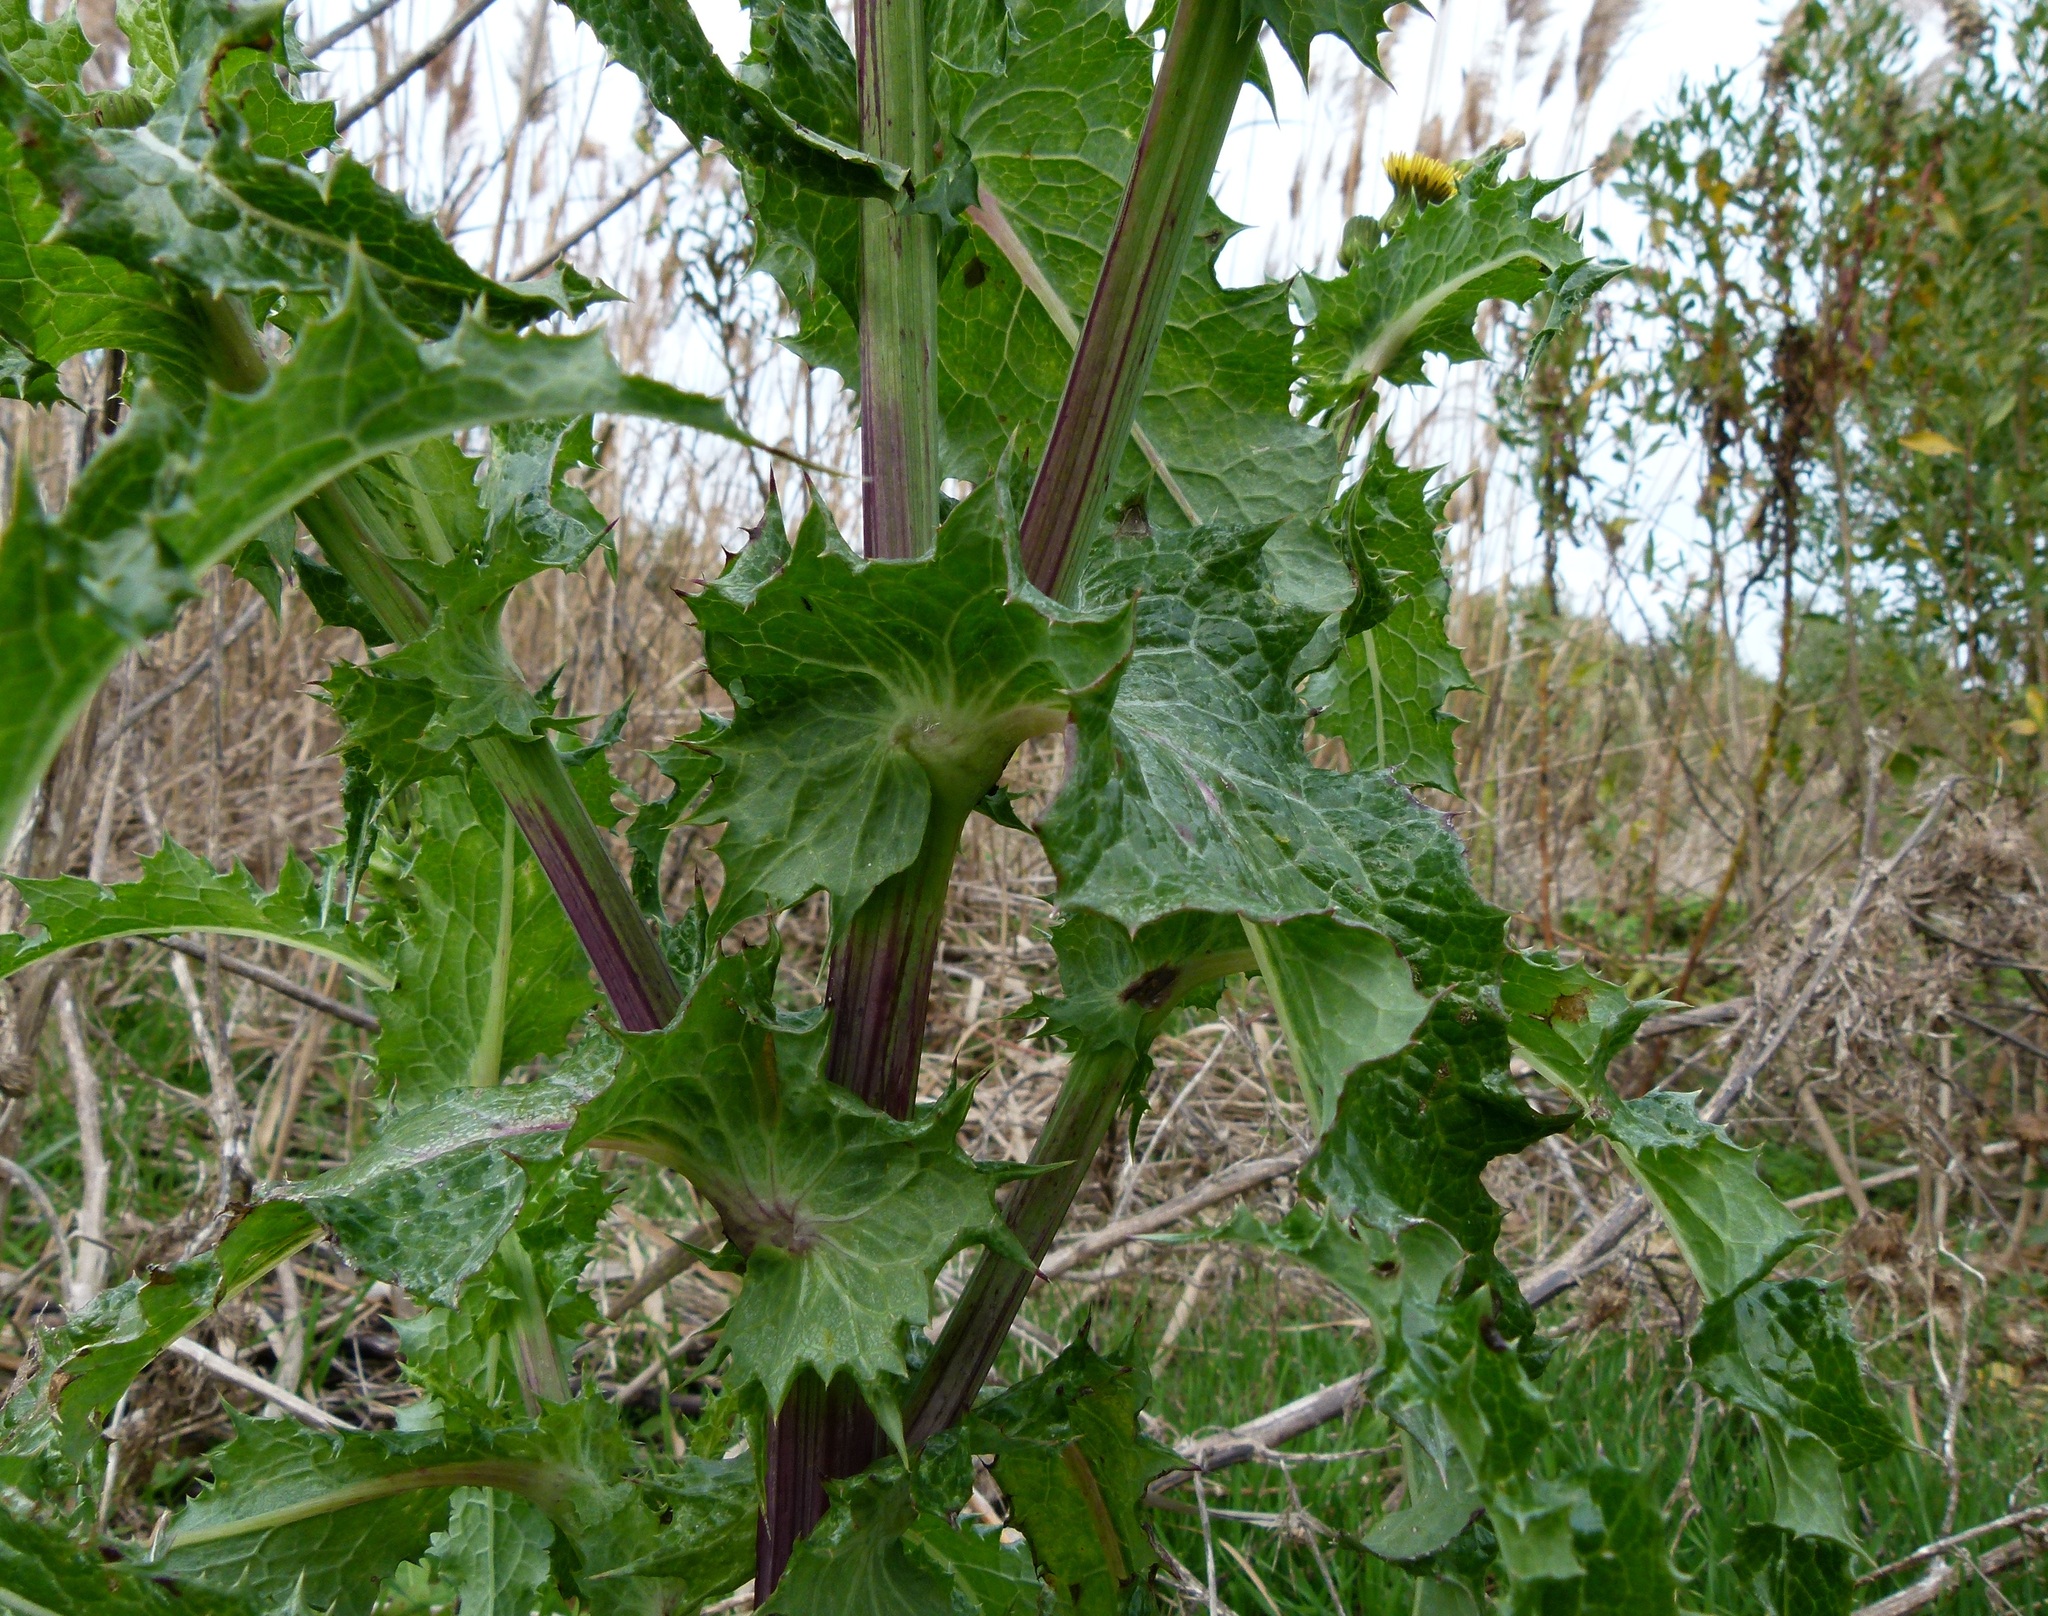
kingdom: Plantae
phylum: Tracheophyta
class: Magnoliopsida
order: Asterales
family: Asteraceae
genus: Sonchus
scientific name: Sonchus asper
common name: Prickly sow-thistle
